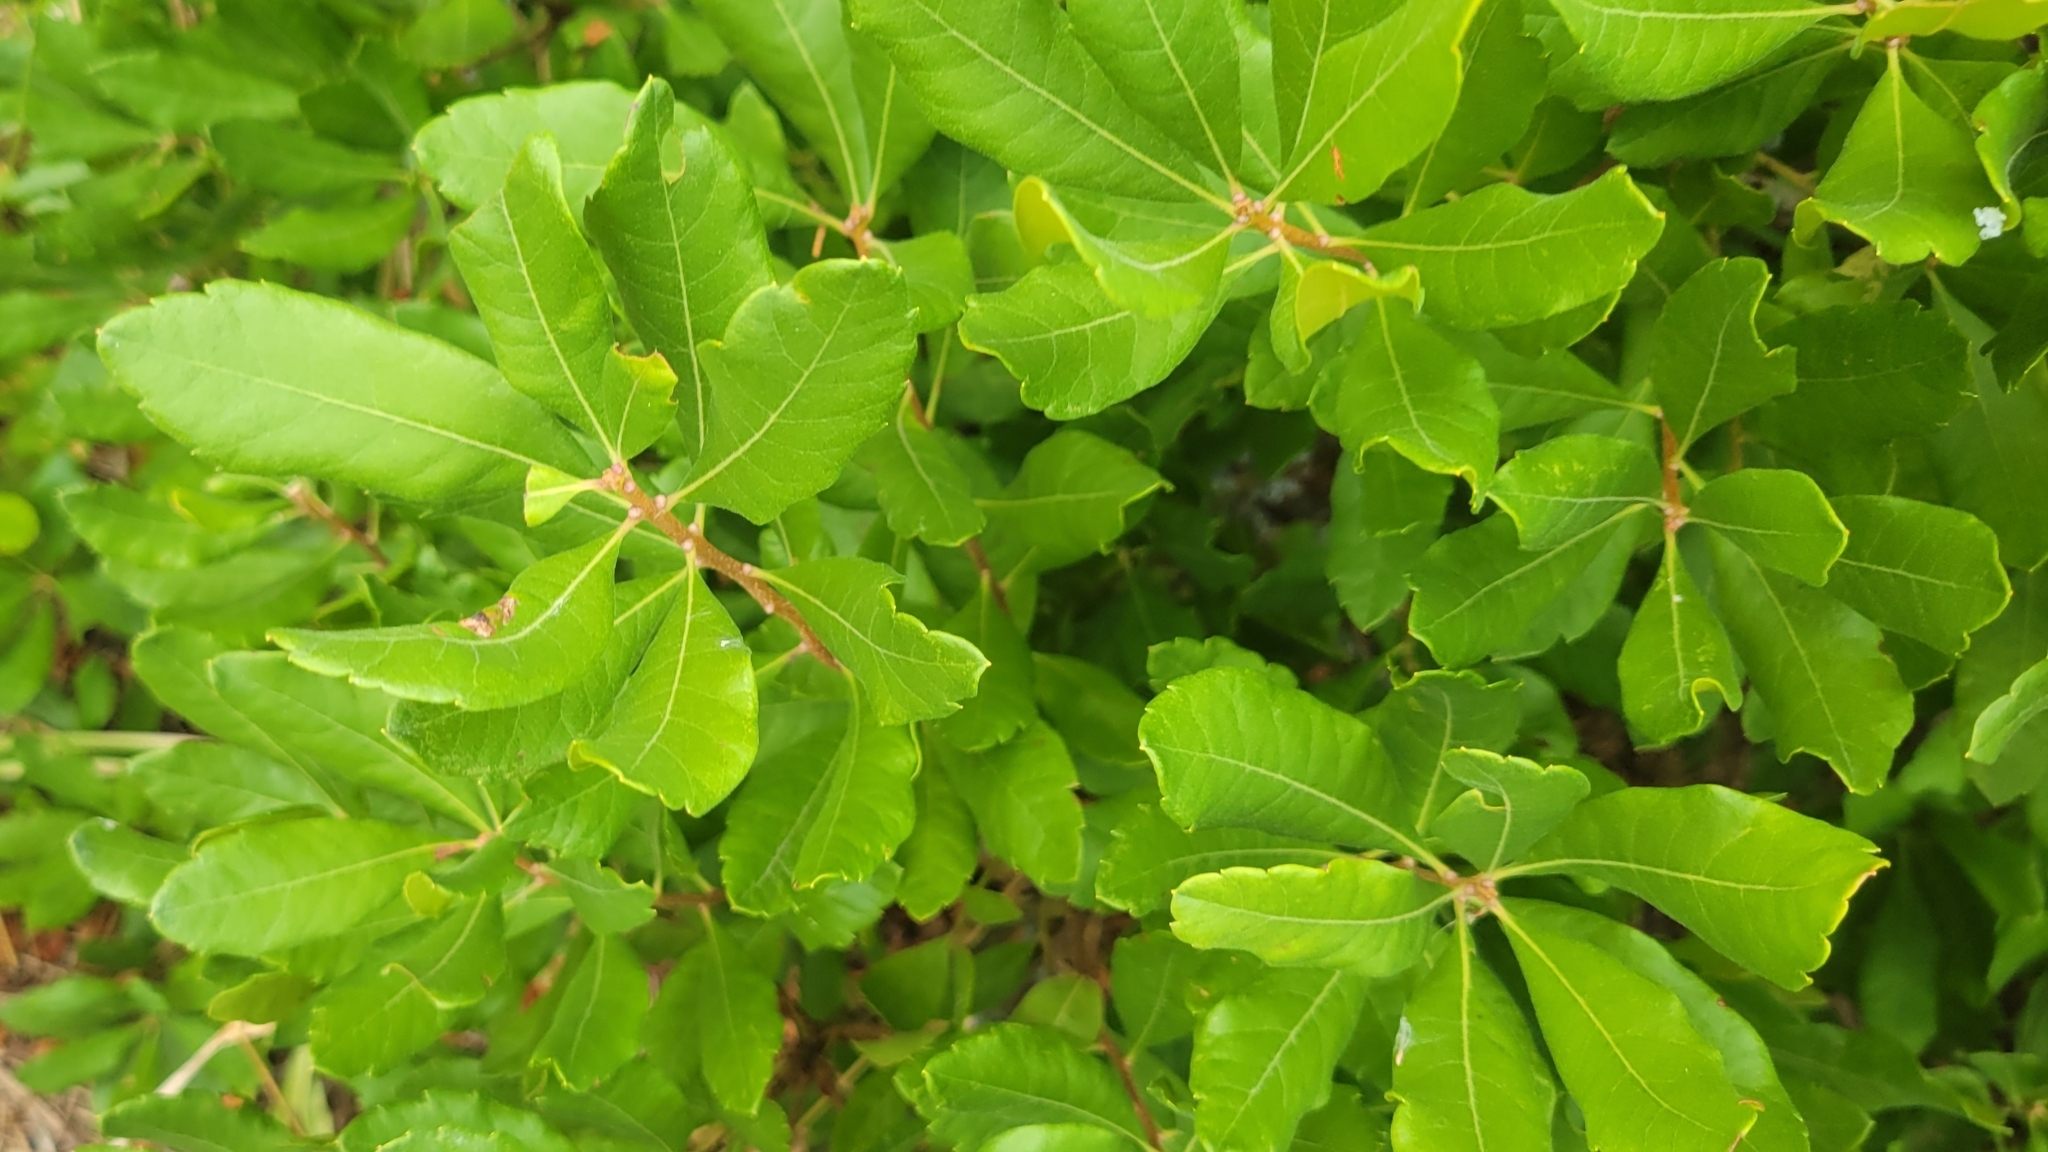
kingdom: Plantae
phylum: Tracheophyta
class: Magnoliopsida
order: Fagales
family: Myricaceae
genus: Morella
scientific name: Morella pensylvanica
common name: Northern bayberry
